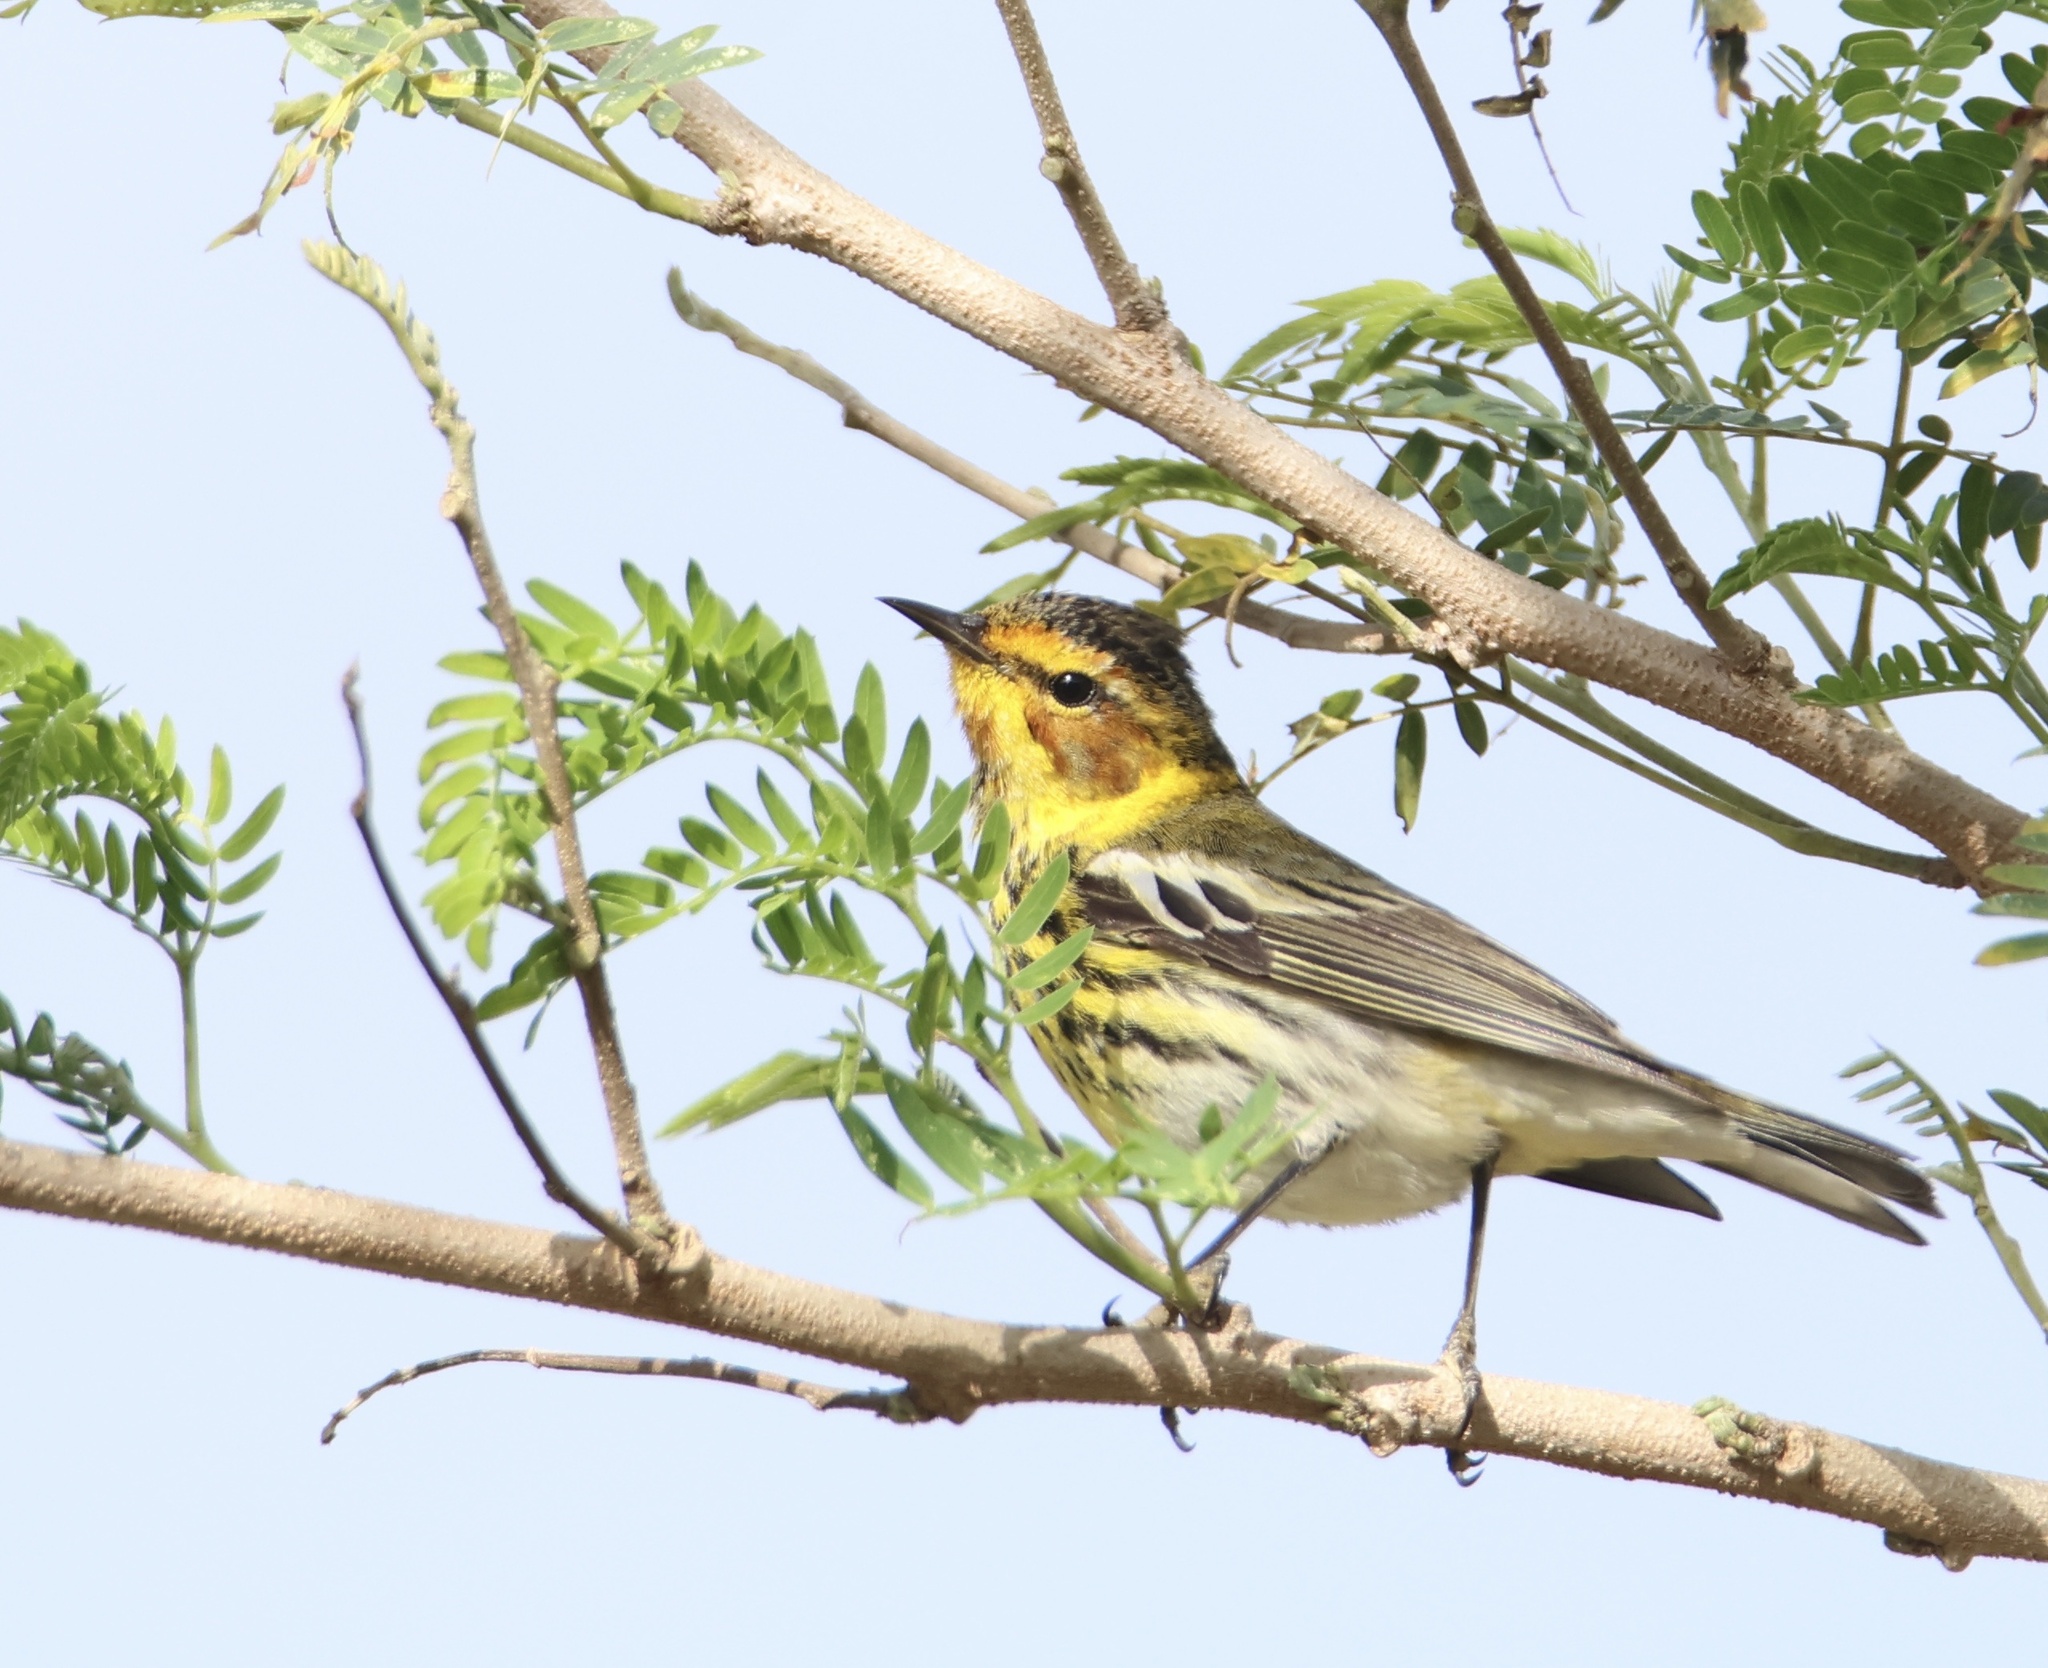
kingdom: Animalia
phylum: Chordata
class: Aves
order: Passeriformes
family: Parulidae
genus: Setophaga
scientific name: Setophaga tigrina
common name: Cape may warbler
